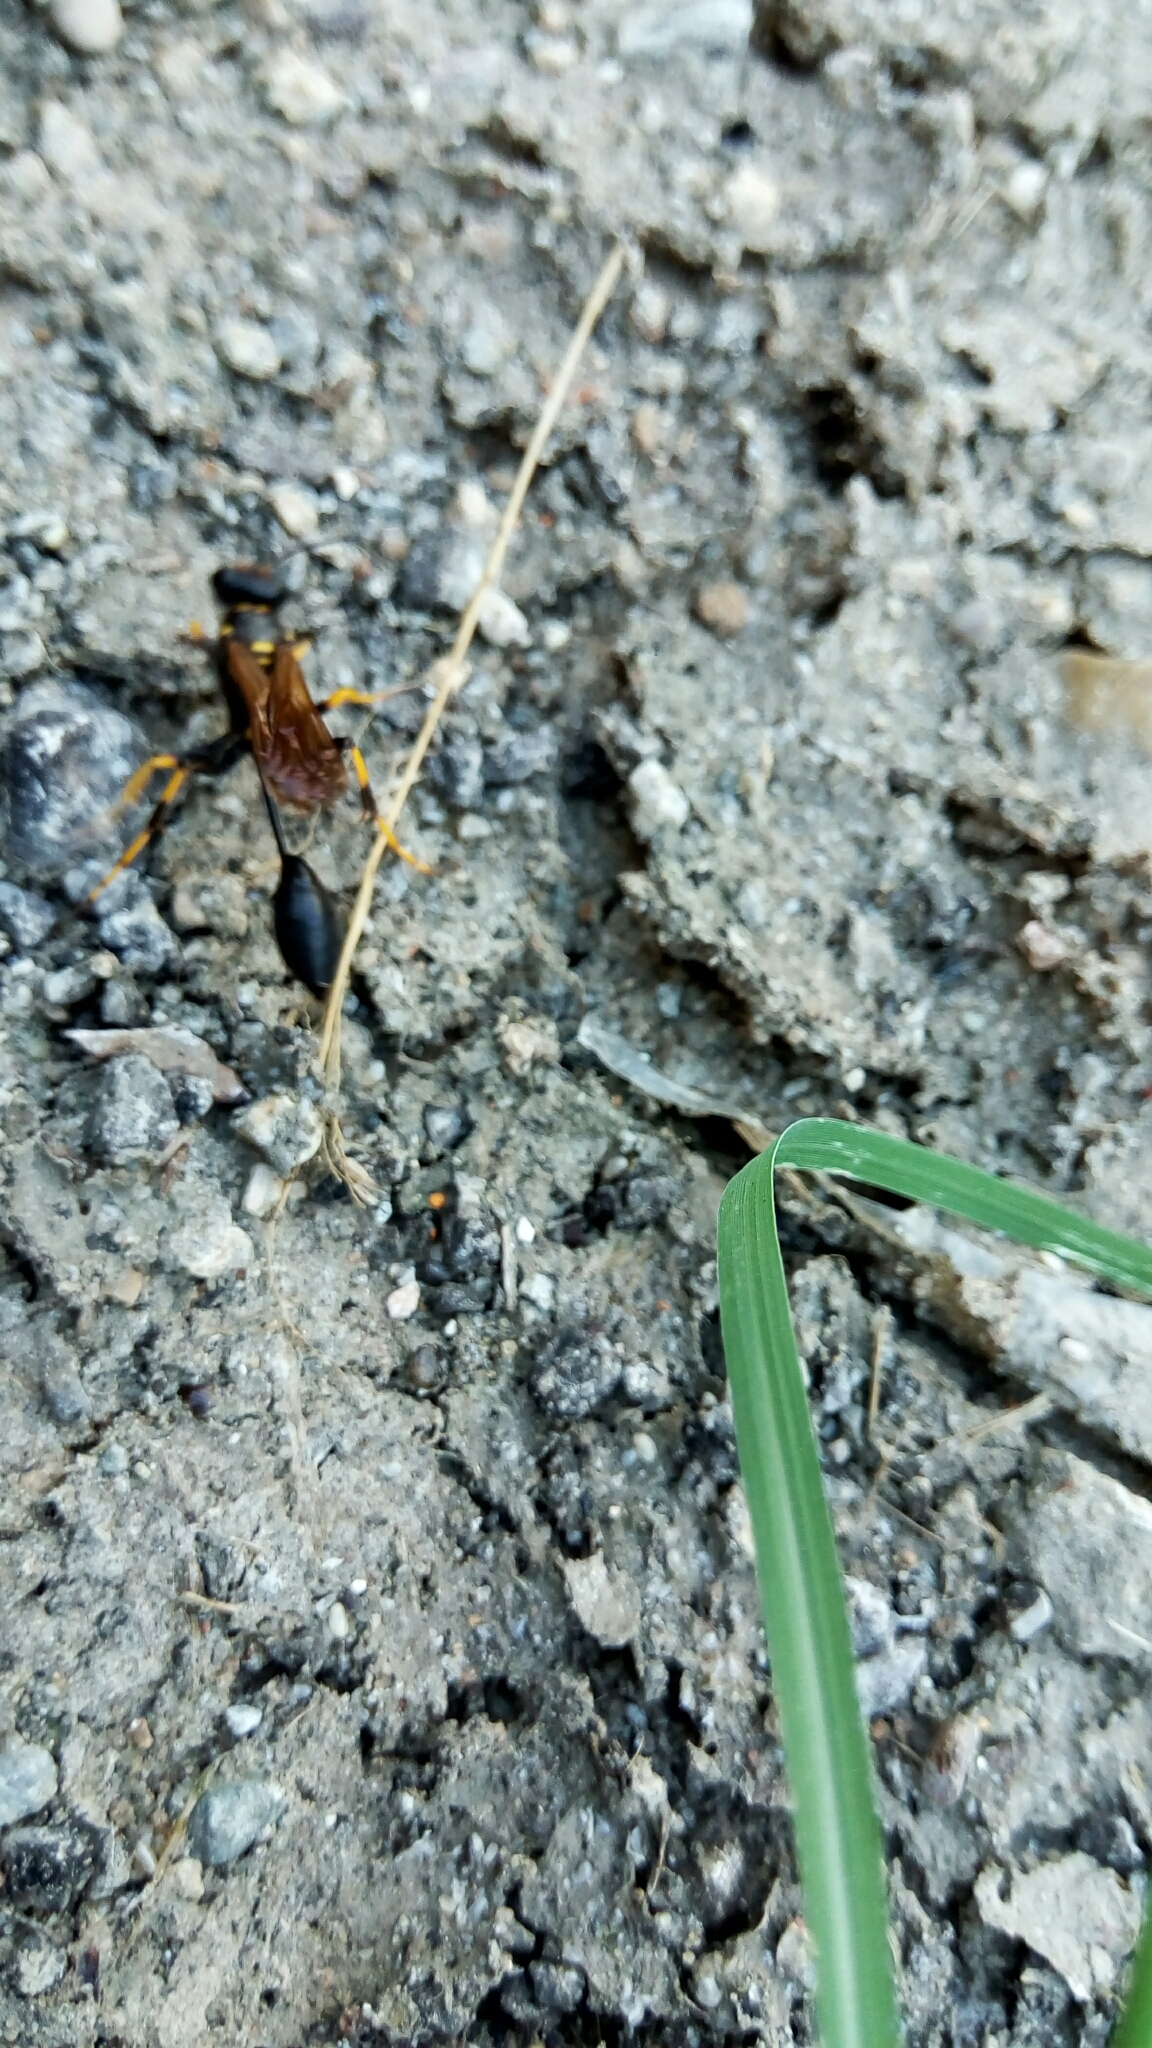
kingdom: Animalia
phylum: Arthropoda
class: Insecta
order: Hymenoptera
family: Sphecidae
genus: Sceliphron
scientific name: Sceliphron caementarium
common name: Mud dauber
